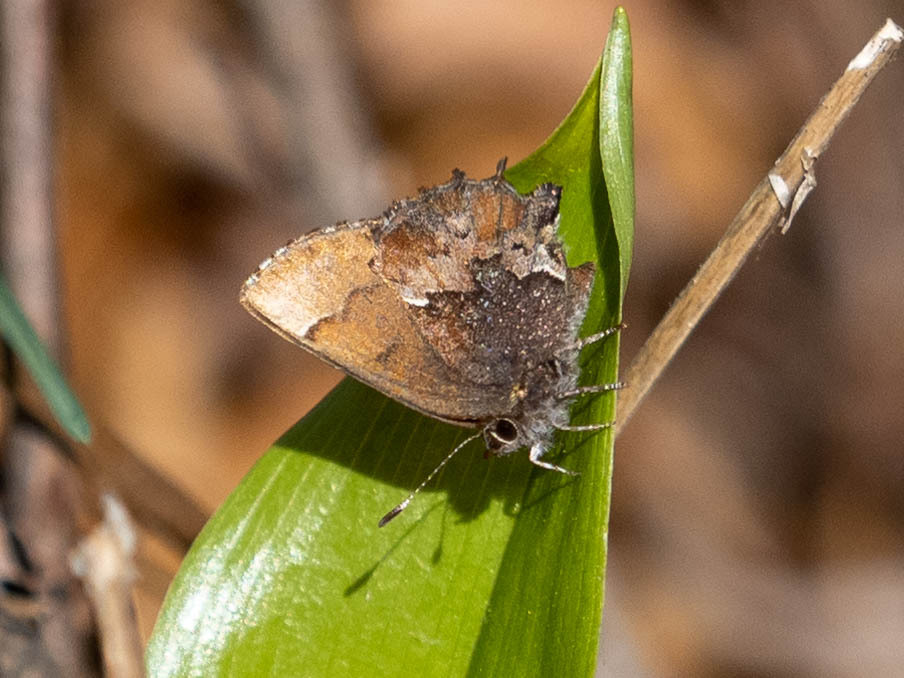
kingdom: Animalia
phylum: Arthropoda
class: Insecta
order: Lepidoptera
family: Lycaenidae
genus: Incisalia
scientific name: Incisalia henrici
